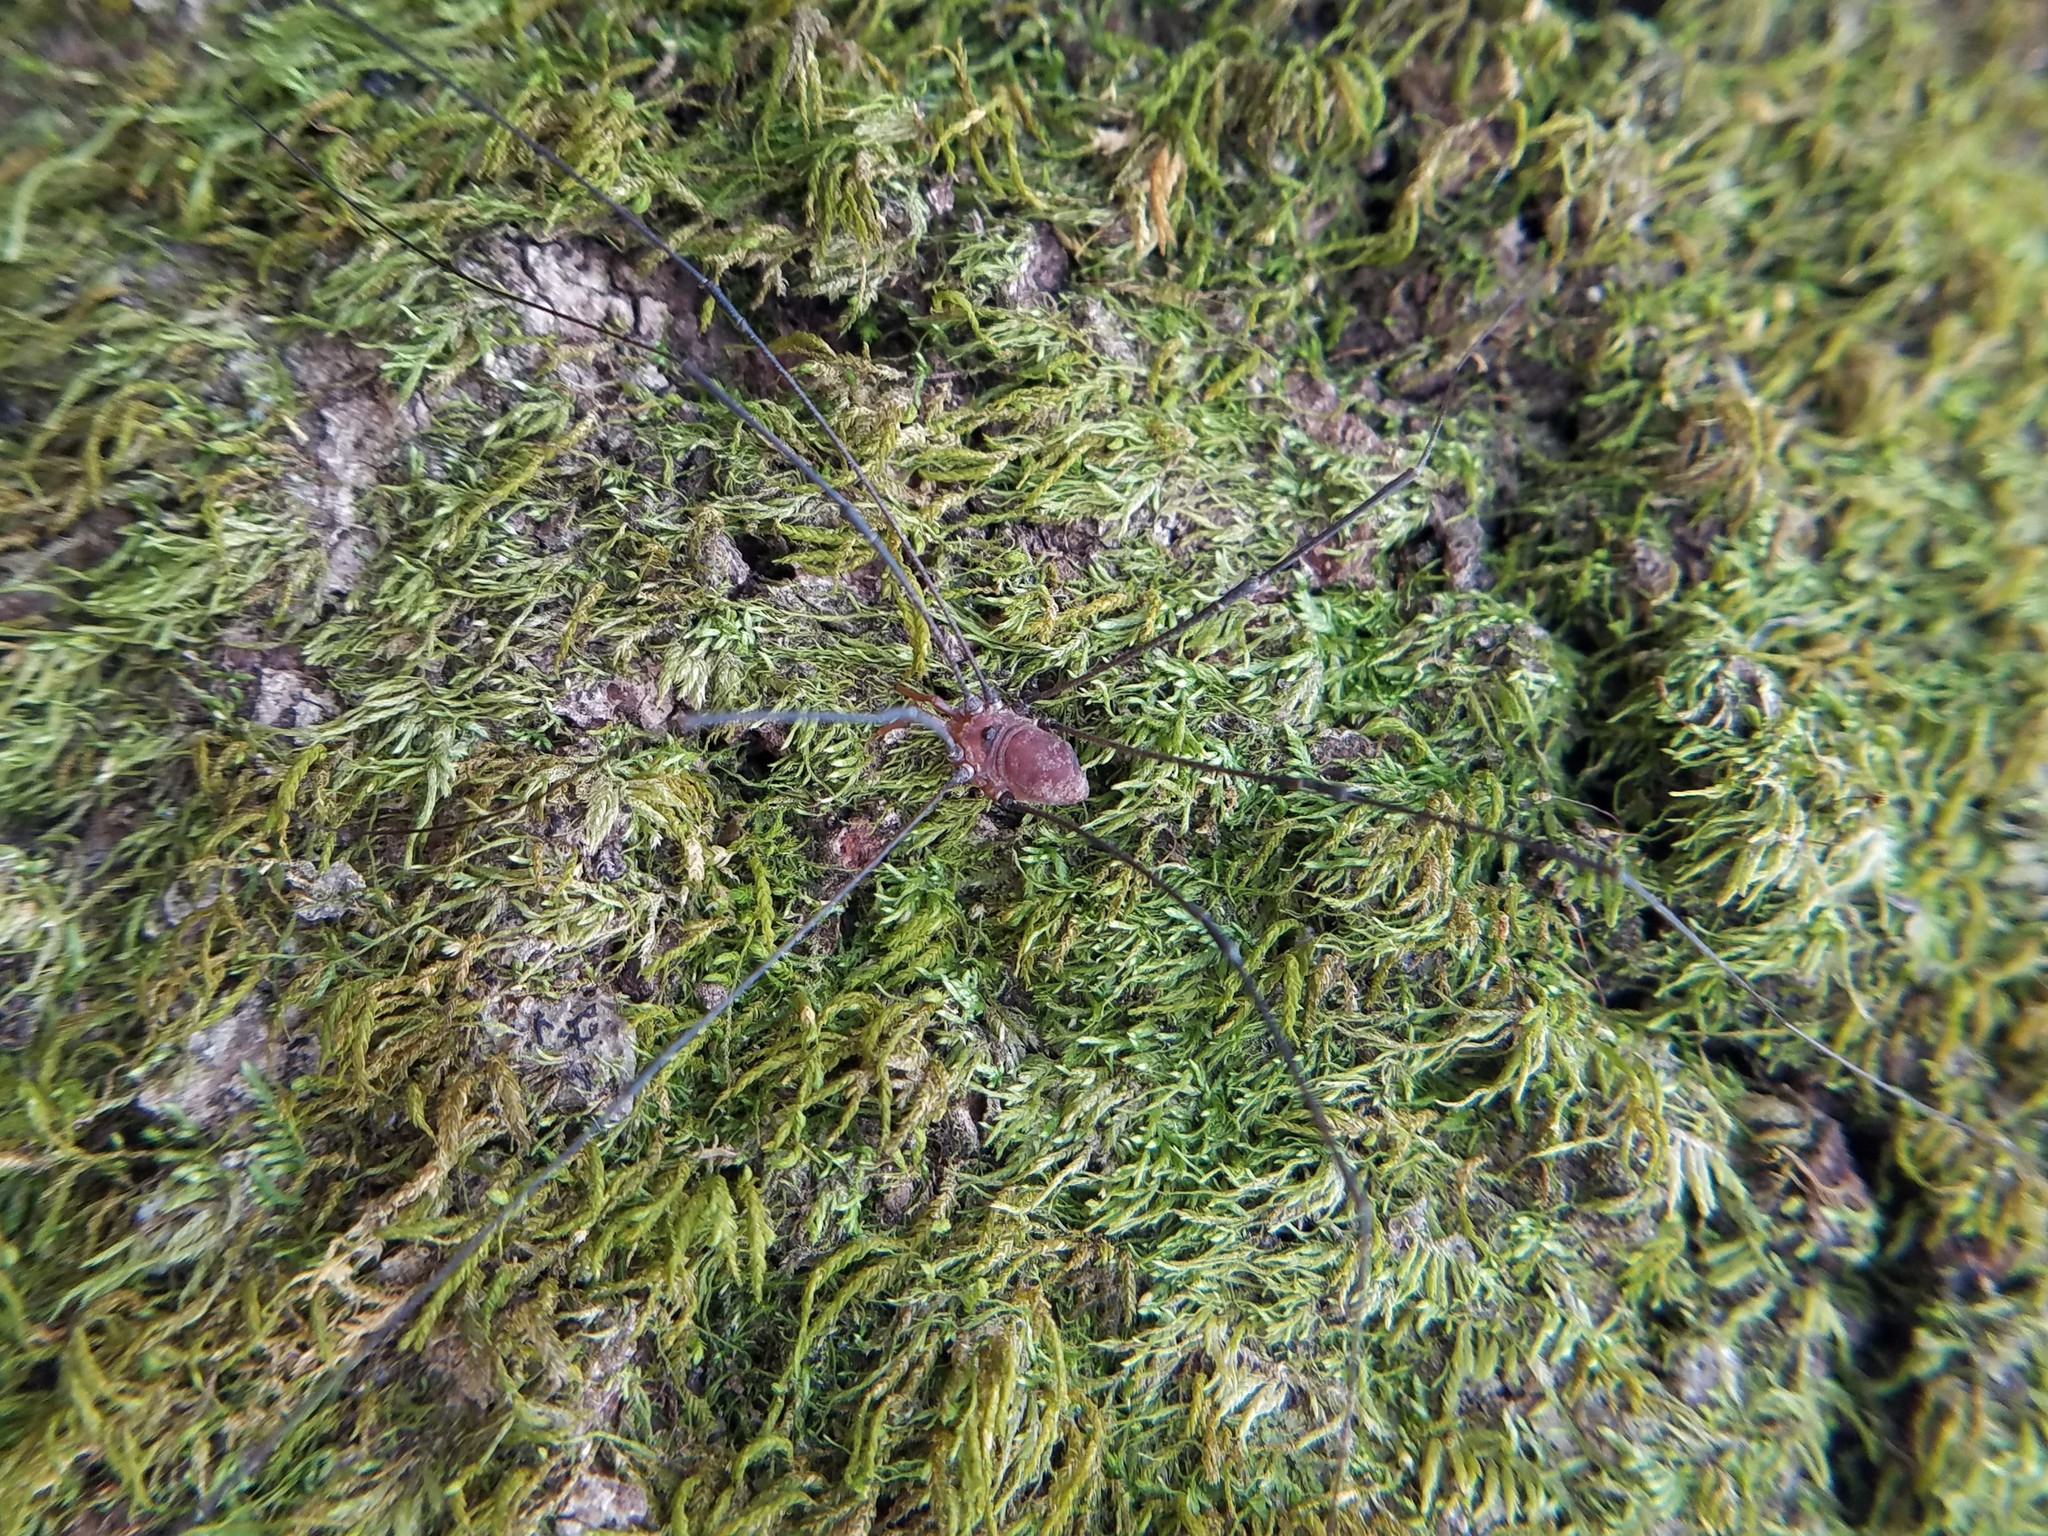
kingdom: Animalia
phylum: Arthropoda
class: Arachnida
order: Opiliones
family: Sclerosomatidae
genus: Leiobunum
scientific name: Leiobunum vittatum
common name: Eastern harvestman
